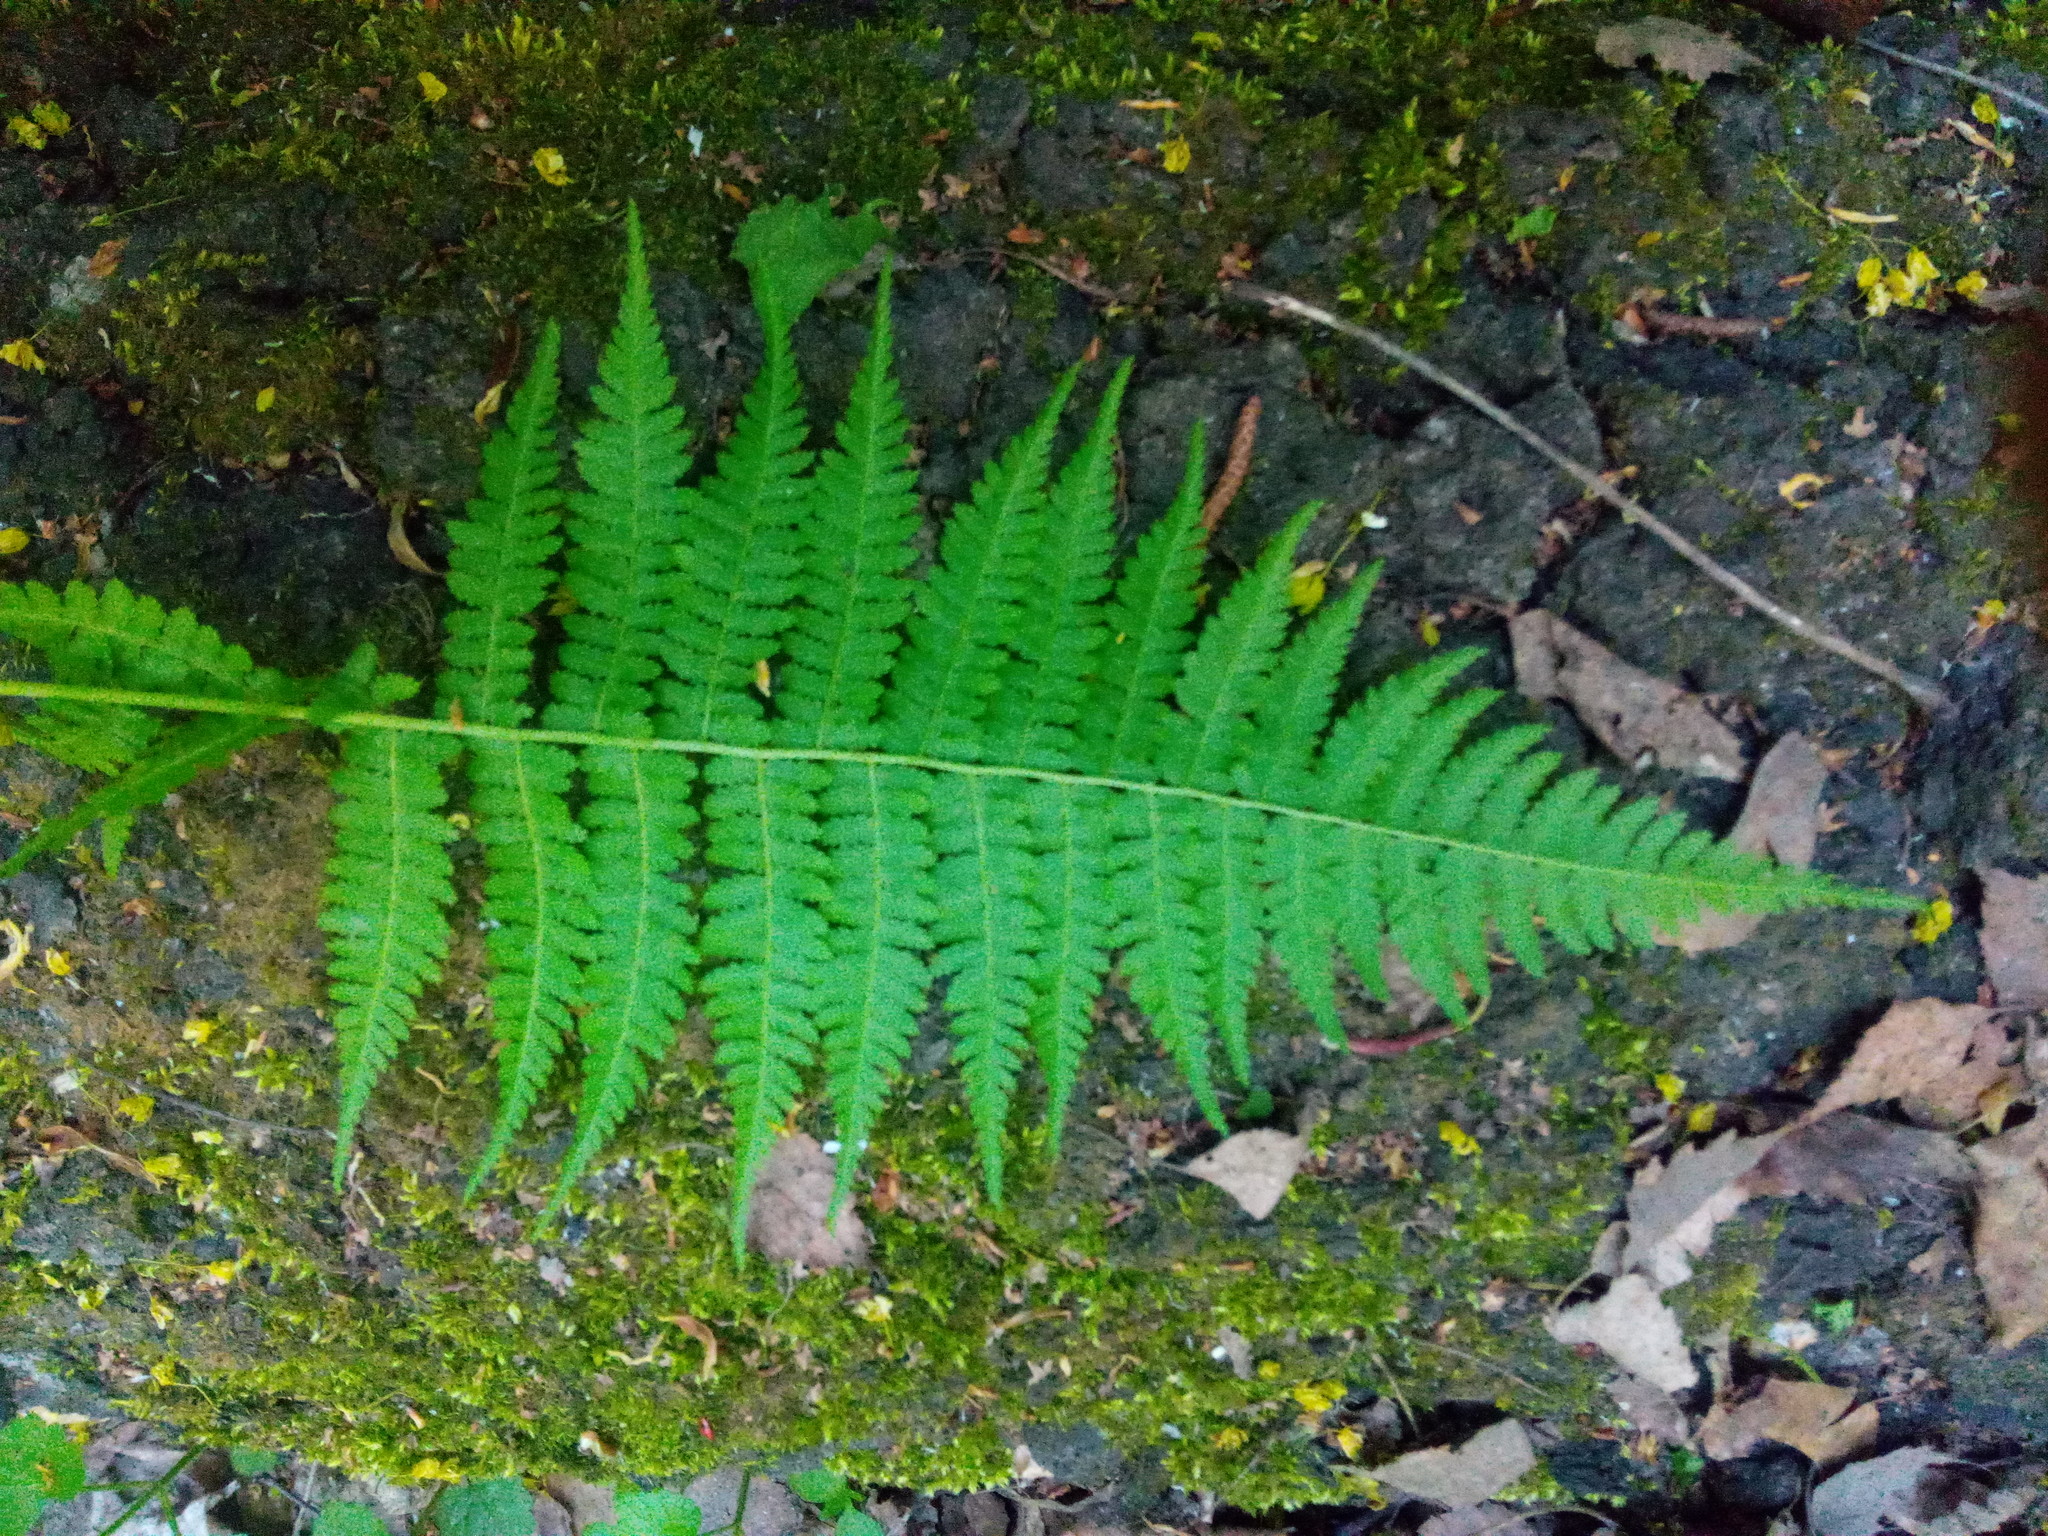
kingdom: Plantae
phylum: Tracheophyta
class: Polypodiopsida
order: Polypodiales
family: Dryopteridaceae
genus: Dryopteris
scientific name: Dryopteris carthusiana
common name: Narrow buckler-fern
